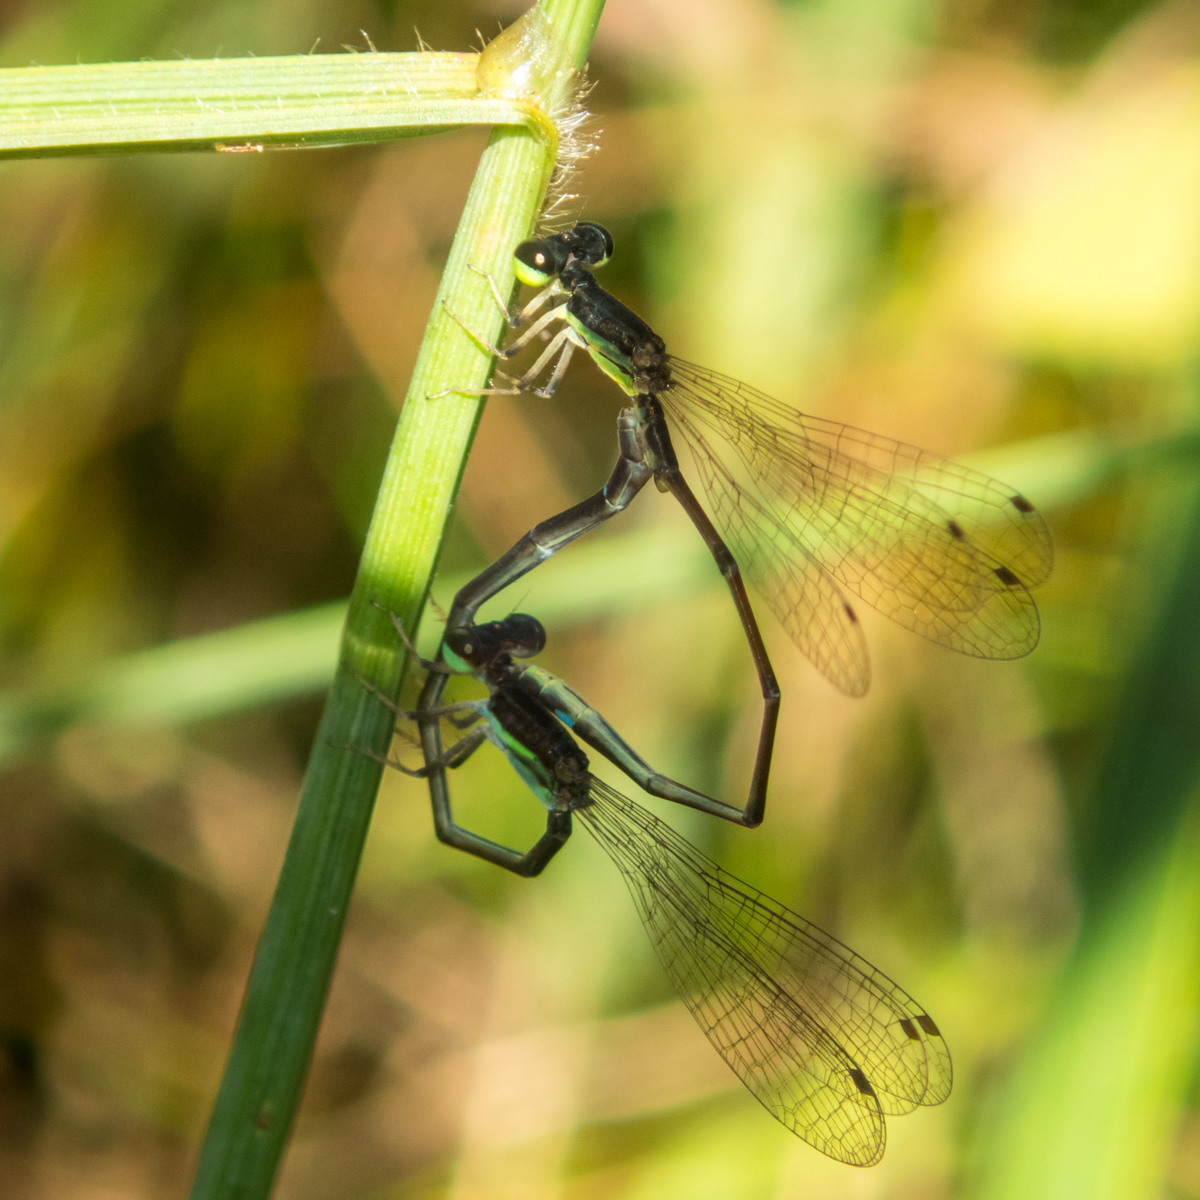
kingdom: Animalia
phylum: Arthropoda
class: Insecta
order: Odonata
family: Coenagrionidae
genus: Mortonagrion
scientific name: Mortonagrion falcatum
